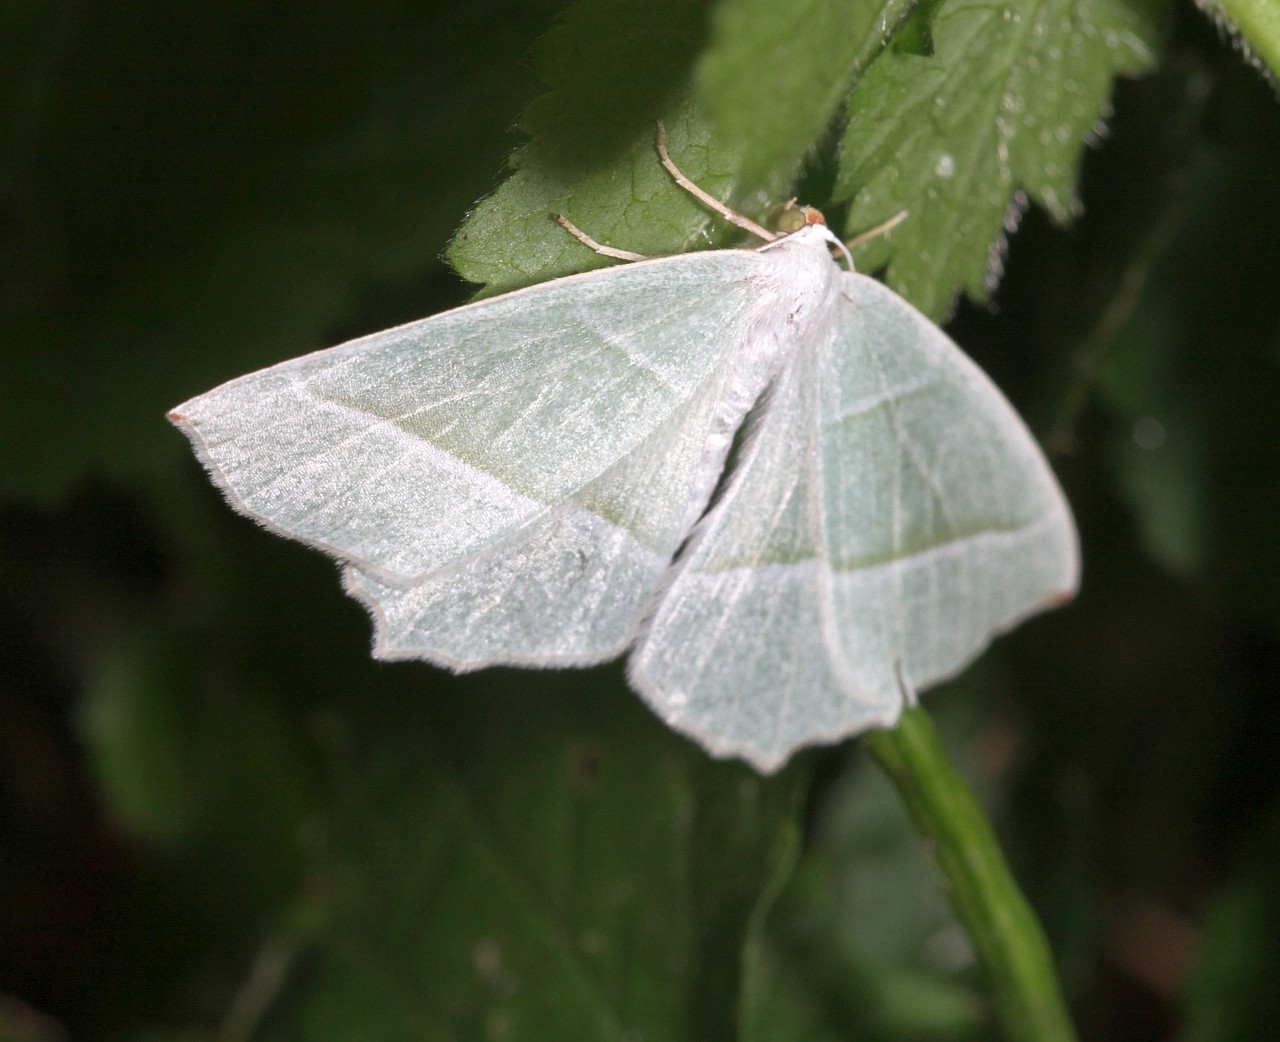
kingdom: Animalia
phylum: Arthropoda
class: Insecta
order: Lepidoptera
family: Geometridae
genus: Campaea
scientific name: Campaea margaritaria
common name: Light emerald
